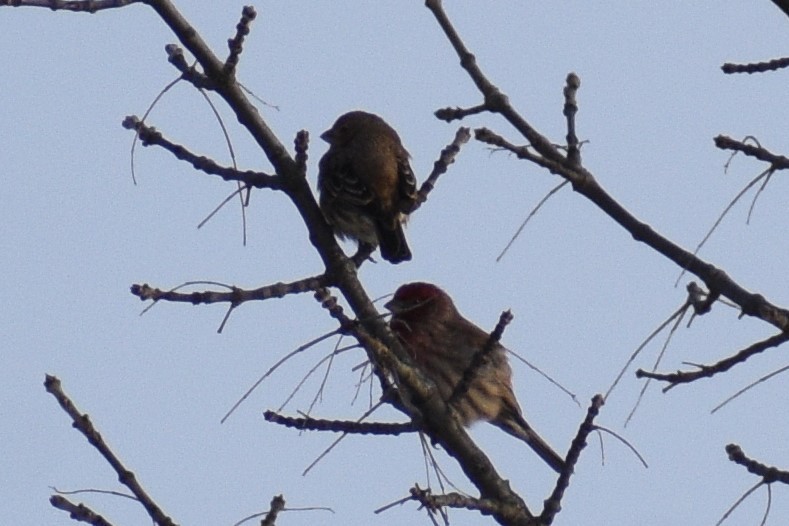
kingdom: Animalia
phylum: Chordata
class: Aves
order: Passeriformes
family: Fringillidae
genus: Haemorhous
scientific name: Haemorhous mexicanus
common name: House finch
